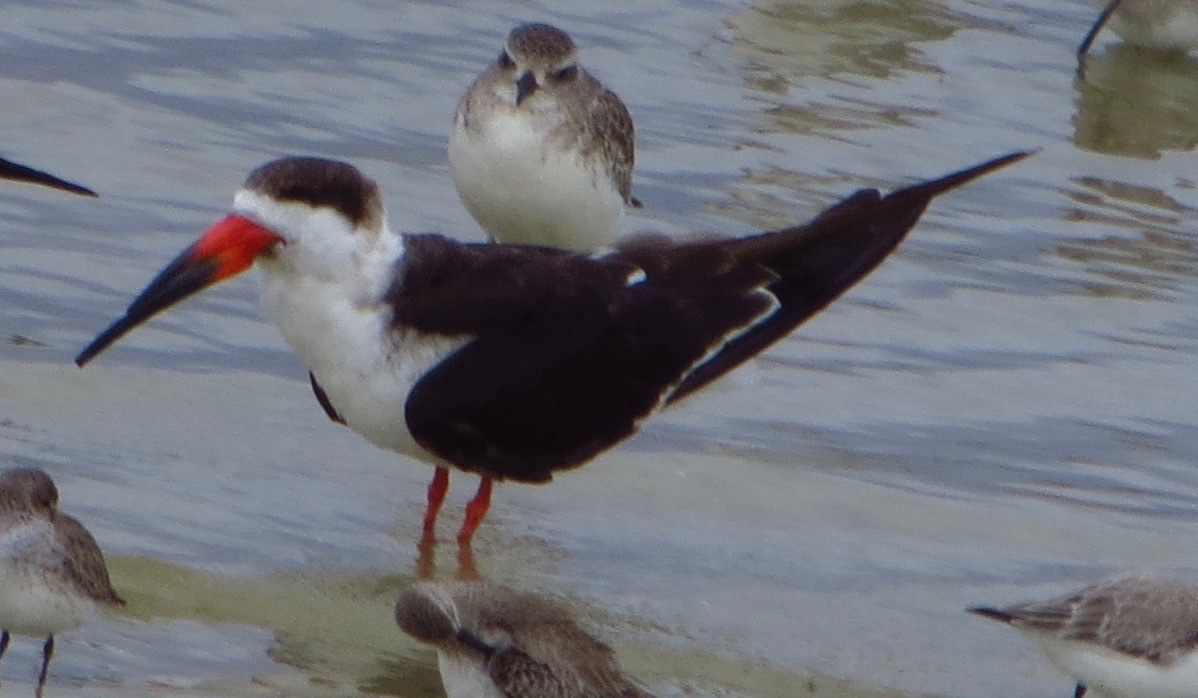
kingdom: Animalia
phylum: Chordata
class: Aves
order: Charadriiformes
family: Laridae
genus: Rynchops
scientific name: Rynchops niger
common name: Black skimmer
